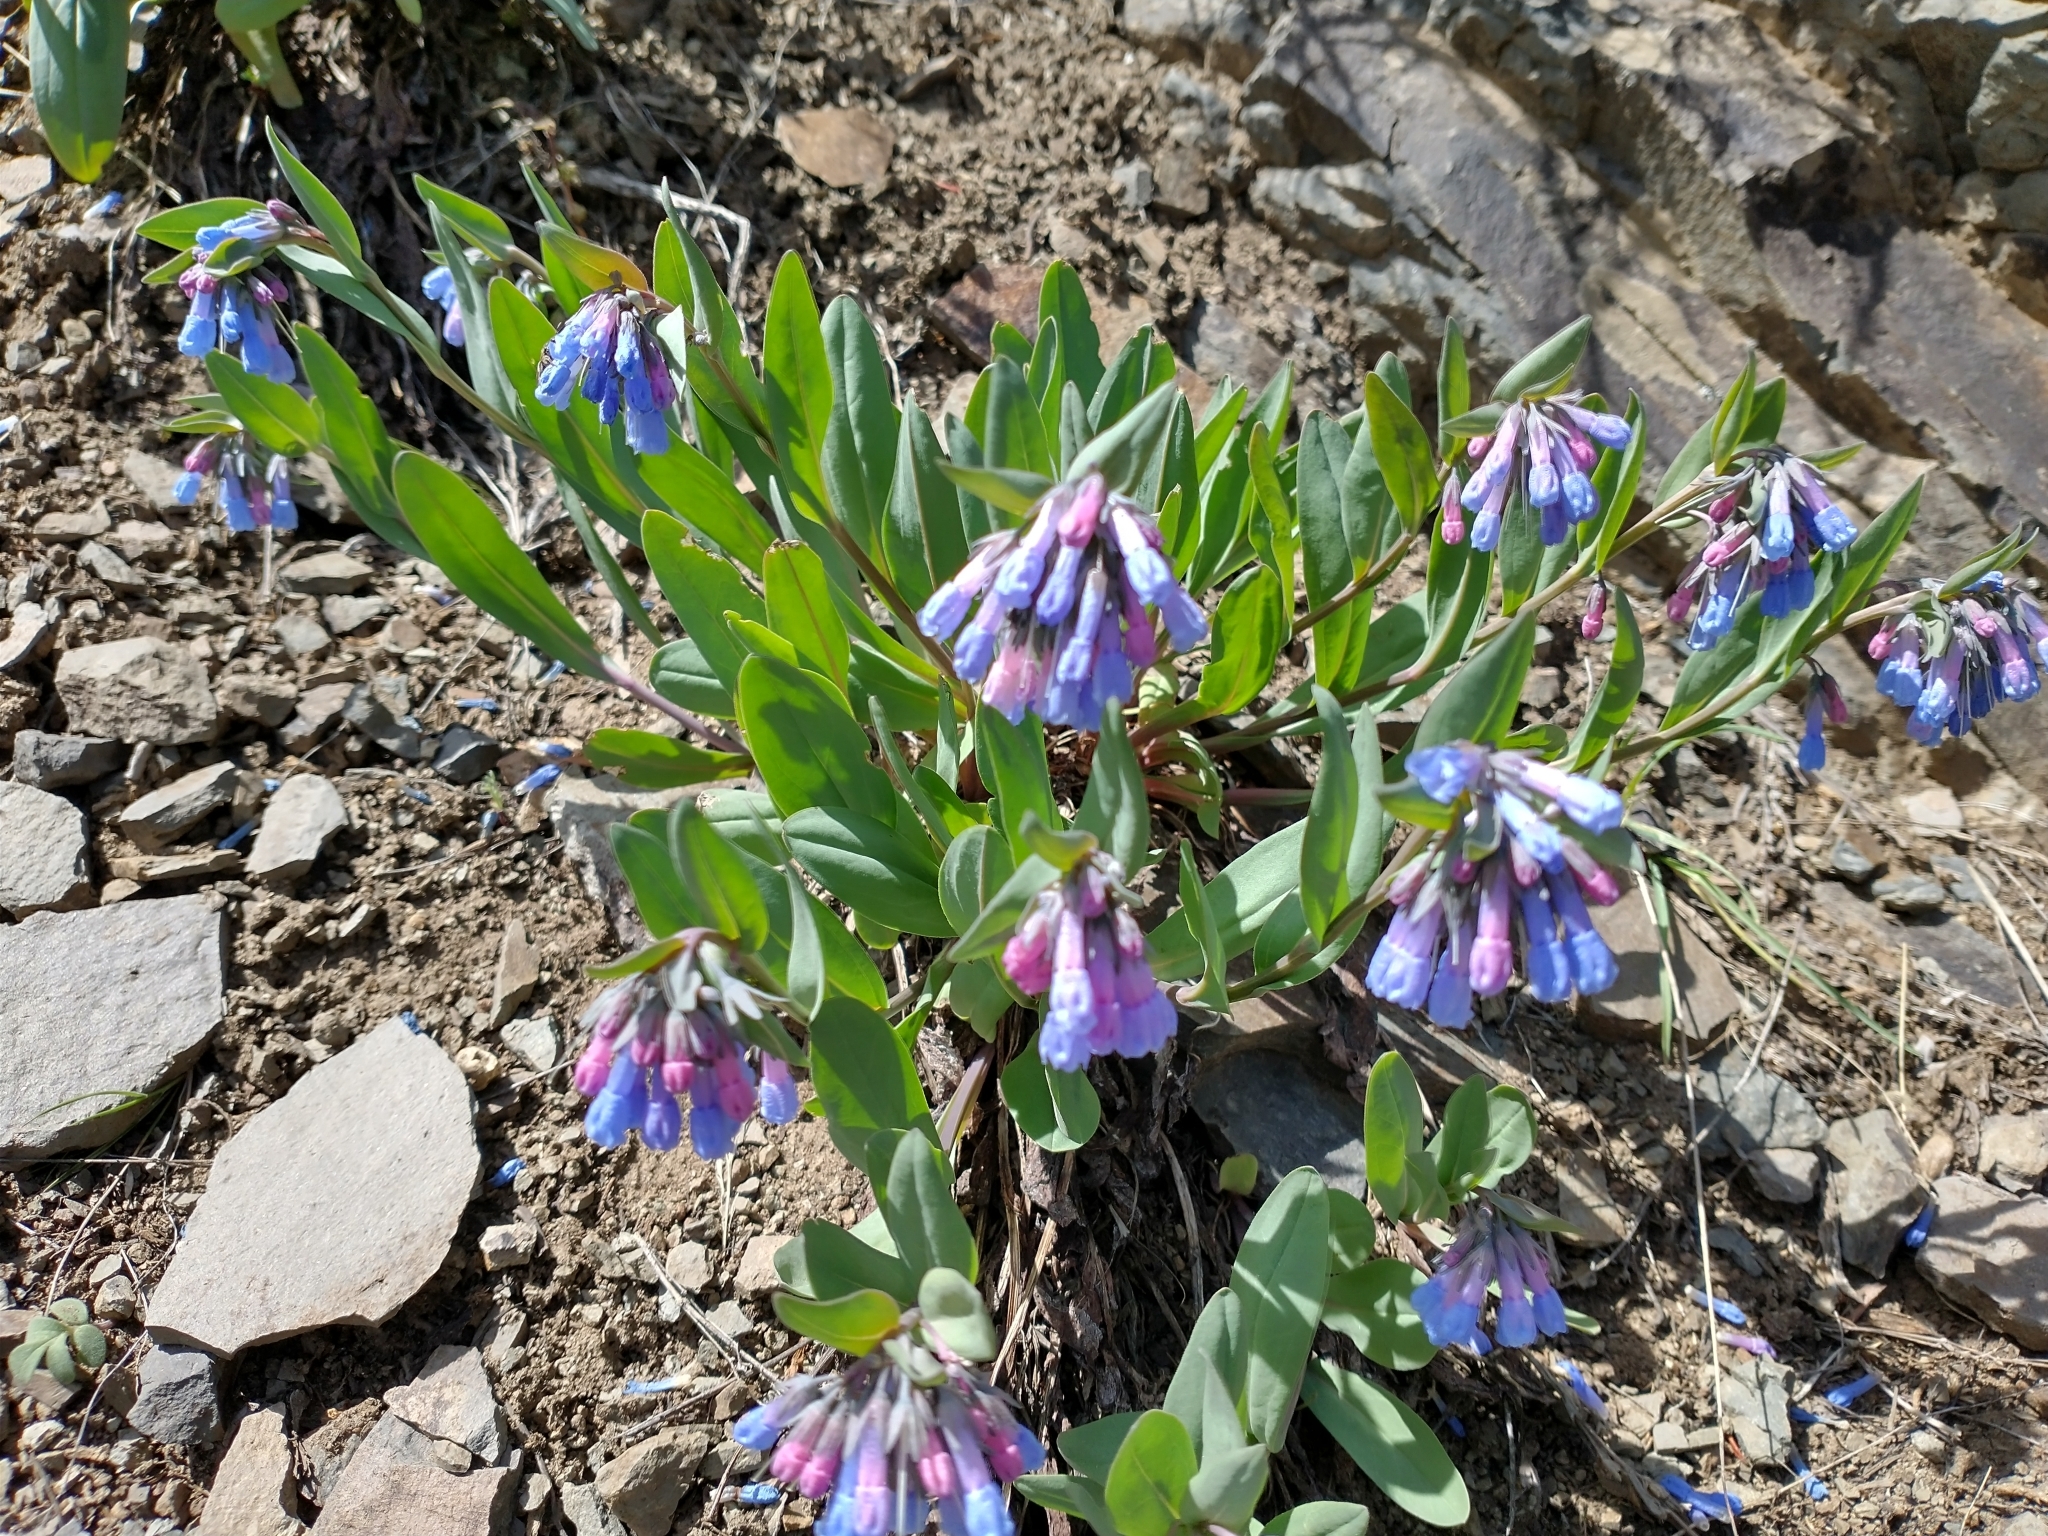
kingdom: Plantae
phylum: Tracheophyta
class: Magnoliopsida
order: Boraginales
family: Boraginaceae
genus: Mertensia
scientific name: Mertensia oblongifolia
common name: Sagebrush bluebells
